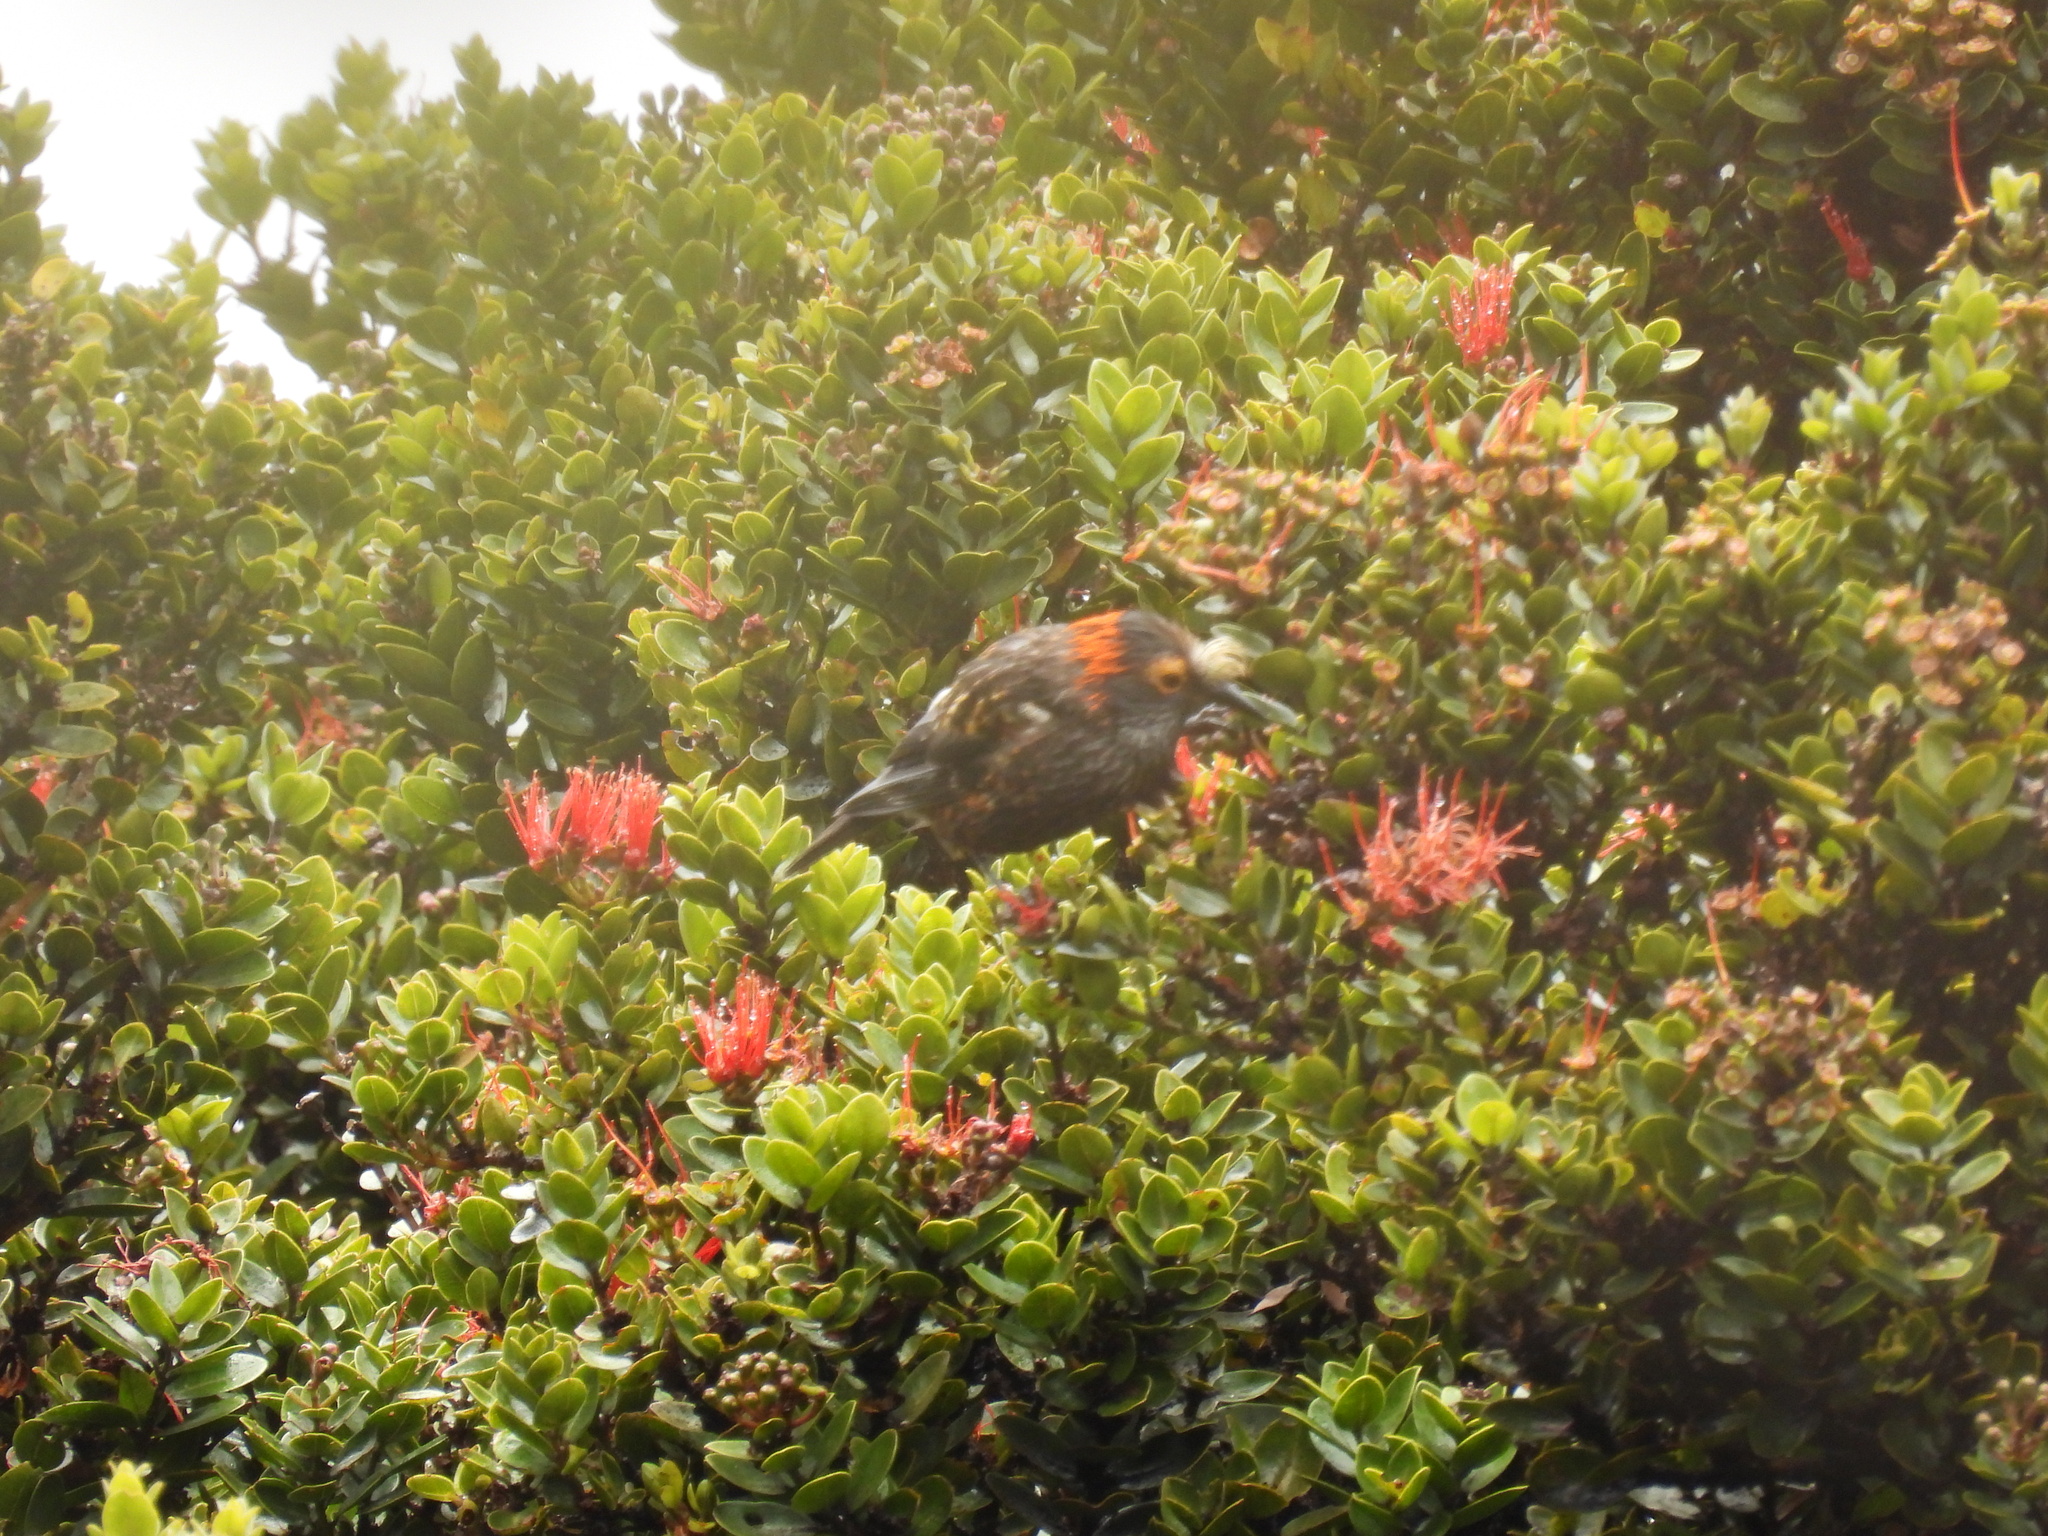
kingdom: Animalia
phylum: Chordata
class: Aves
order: Passeriformes
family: Fringillidae
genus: Palmeria
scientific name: Palmeria dolei
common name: Akohekohe
